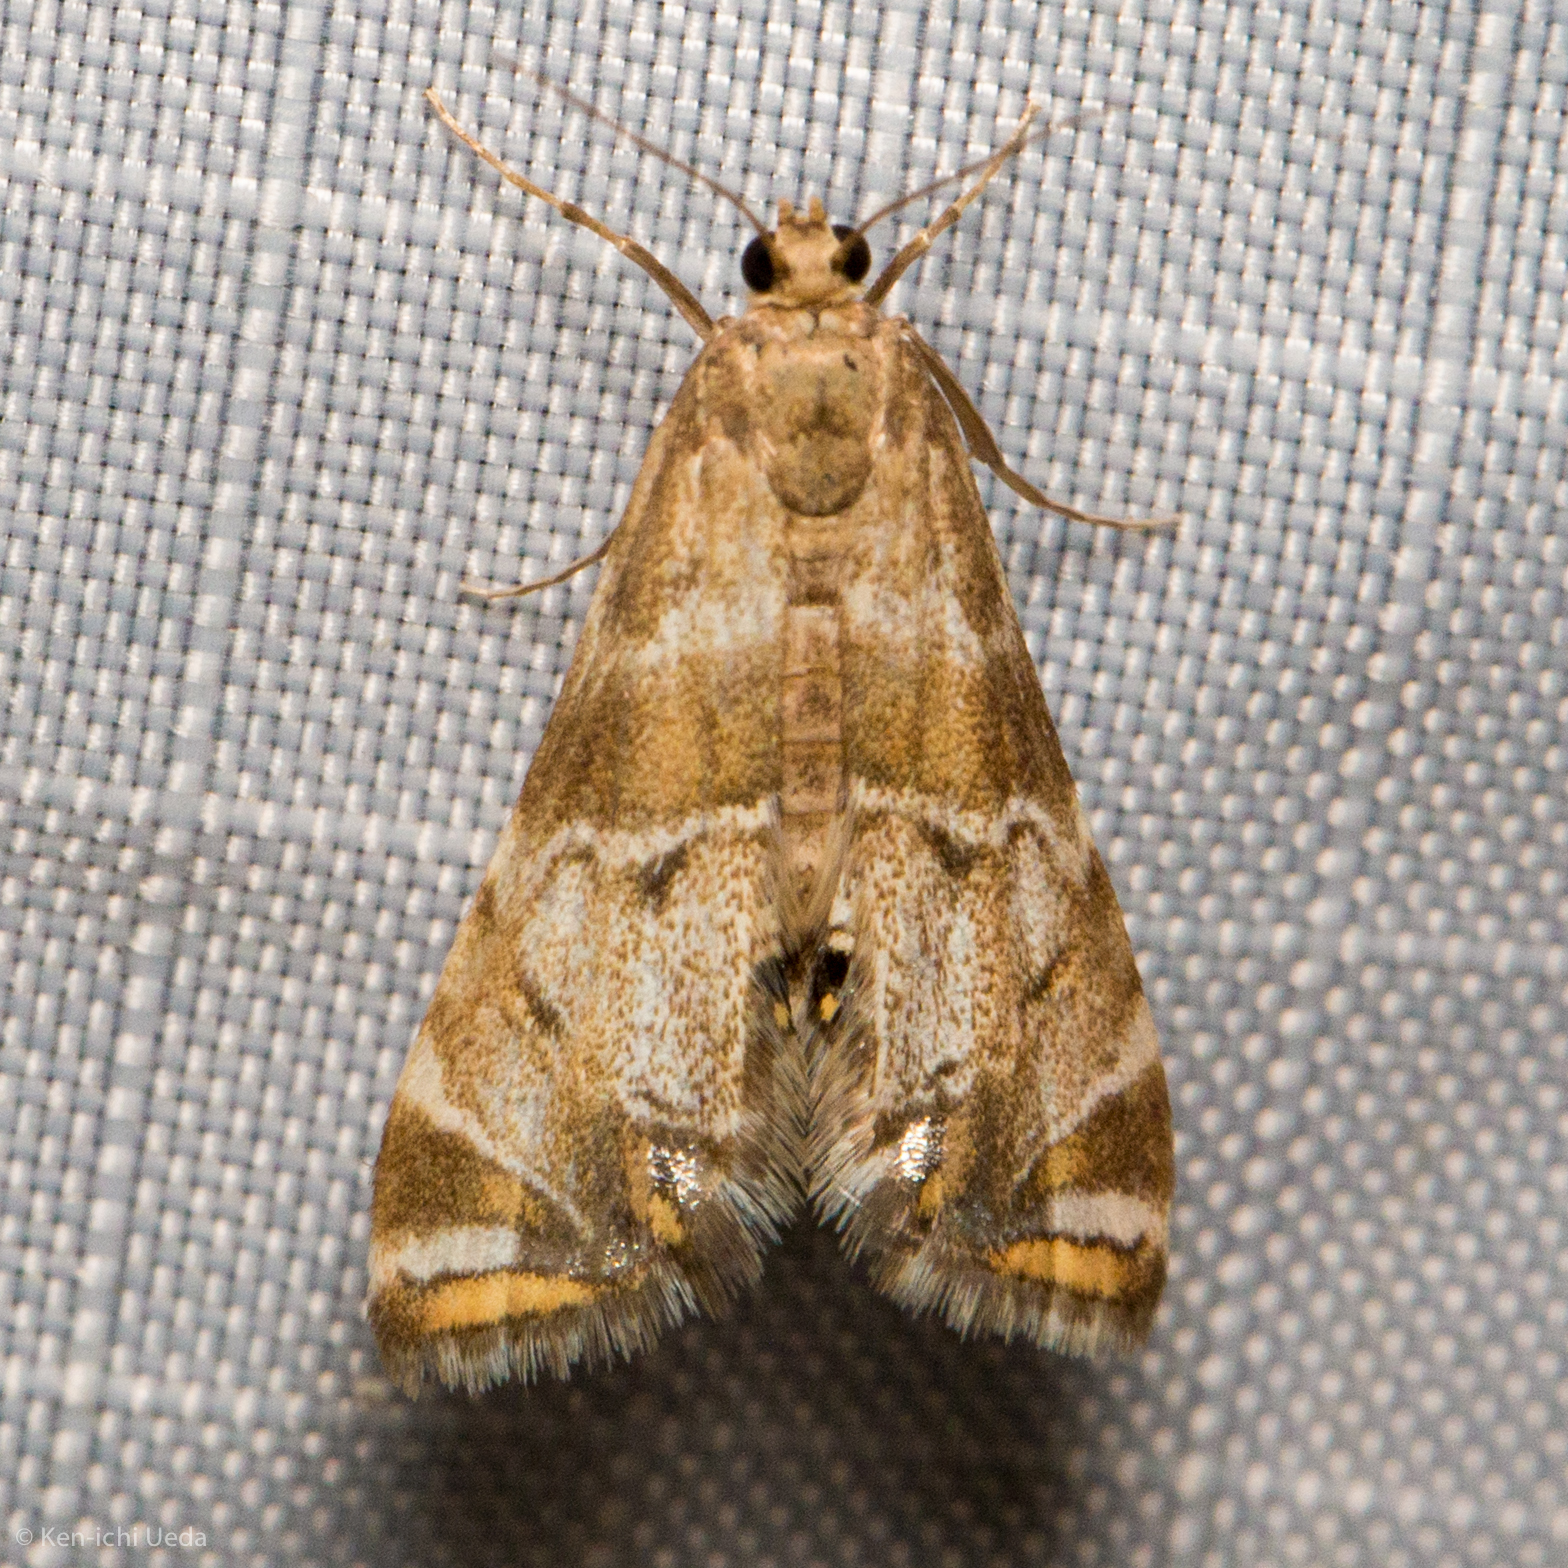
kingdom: Animalia
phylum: Arthropoda
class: Insecta
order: Lepidoptera
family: Crambidae
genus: Petrophila
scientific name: Petrophila confusalis
